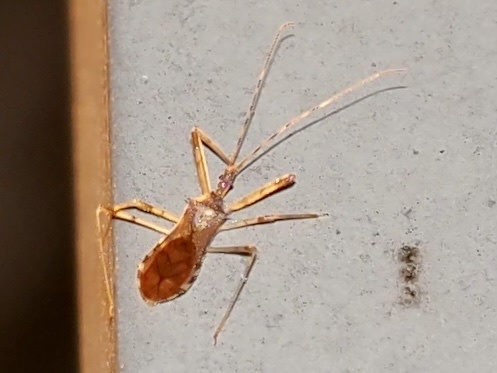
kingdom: Animalia
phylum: Arthropoda
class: Insecta
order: Hemiptera
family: Reduviidae
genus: Rocconota
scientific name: Rocconota annulicornis
